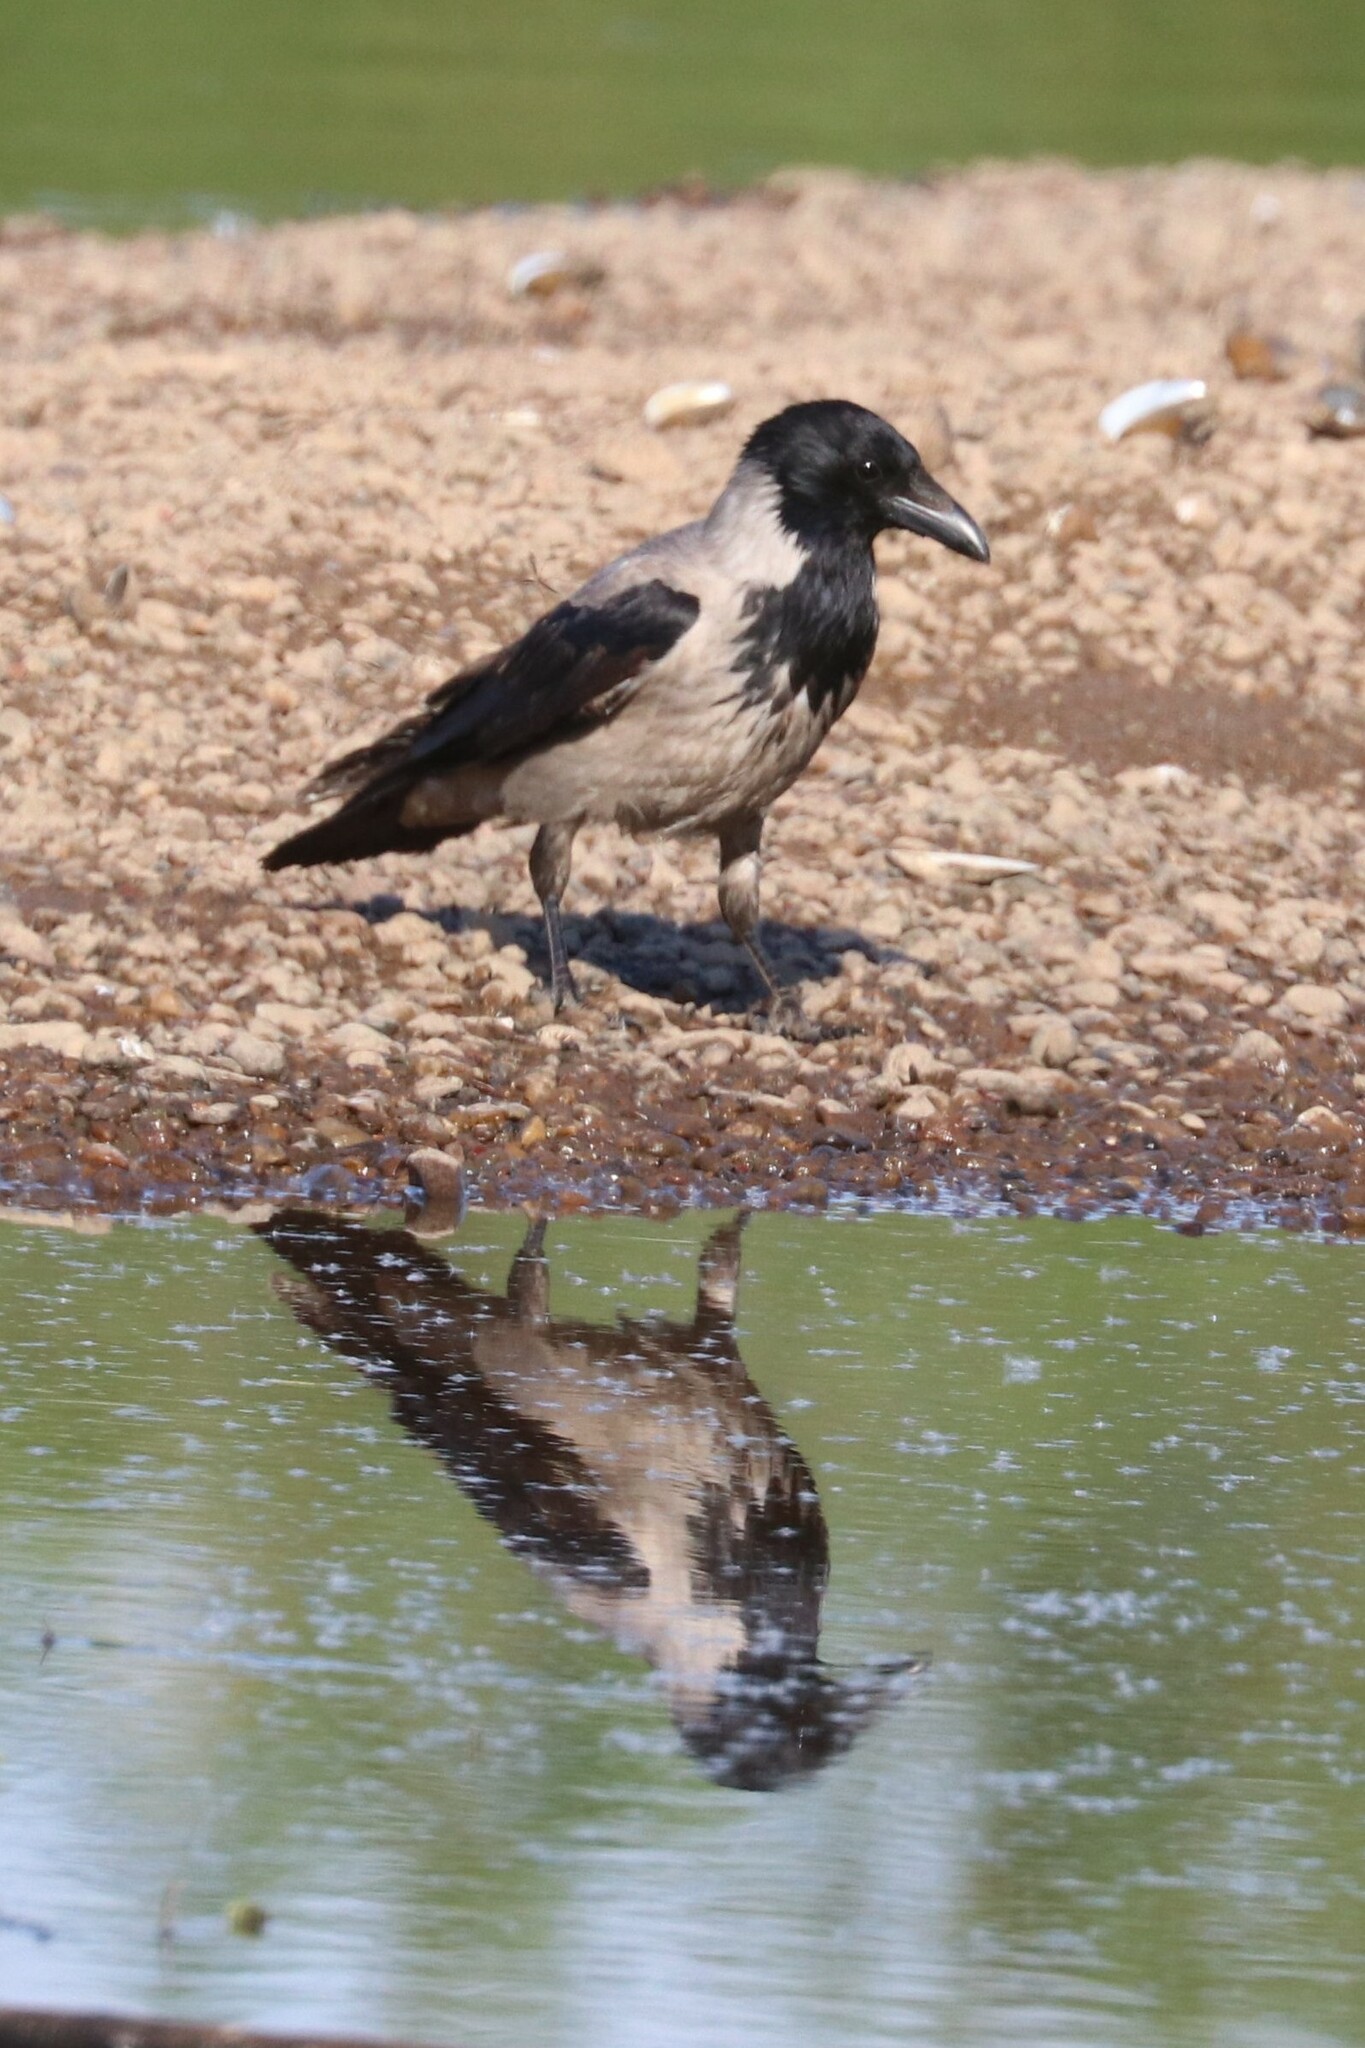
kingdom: Animalia
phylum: Chordata
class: Aves
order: Passeriformes
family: Corvidae
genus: Corvus
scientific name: Corvus cornix
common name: Hooded crow
